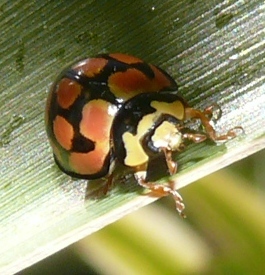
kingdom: Animalia
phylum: Arthropoda
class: Insecta
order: Coleoptera
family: Coccinellidae
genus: Cheilomenes
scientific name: Cheilomenes lunata
